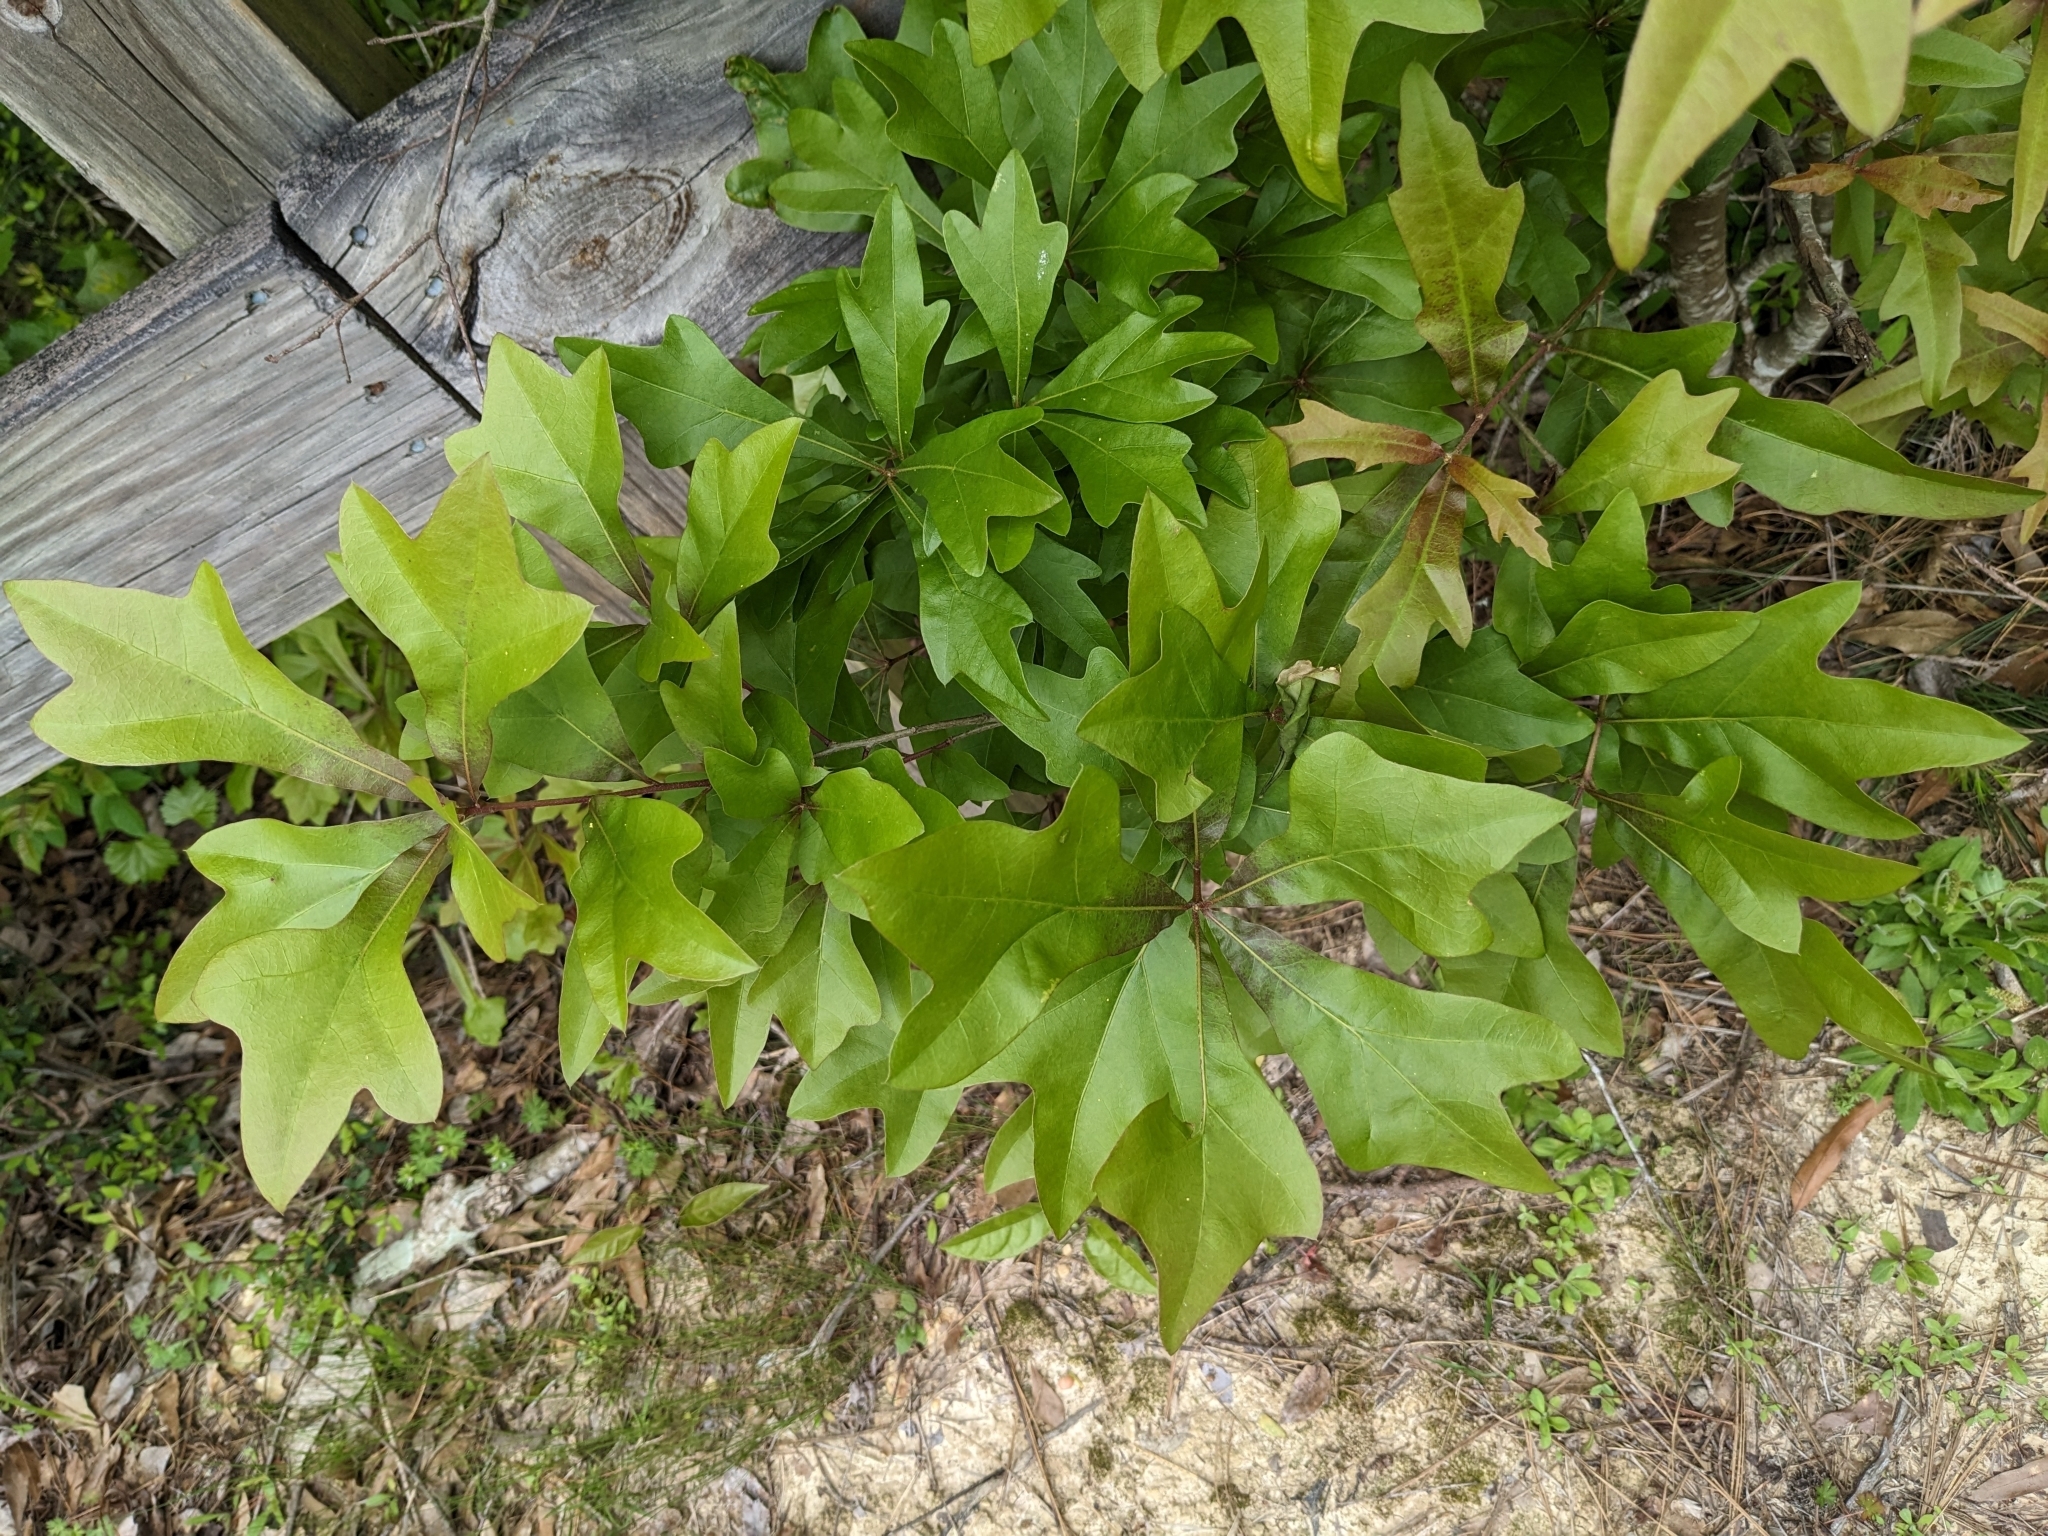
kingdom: Plantae
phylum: Tracheophyta
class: Magnoliopsida
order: Fagales
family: Fagaceae
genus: Quercus
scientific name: Quercus nigra
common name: Water oak
